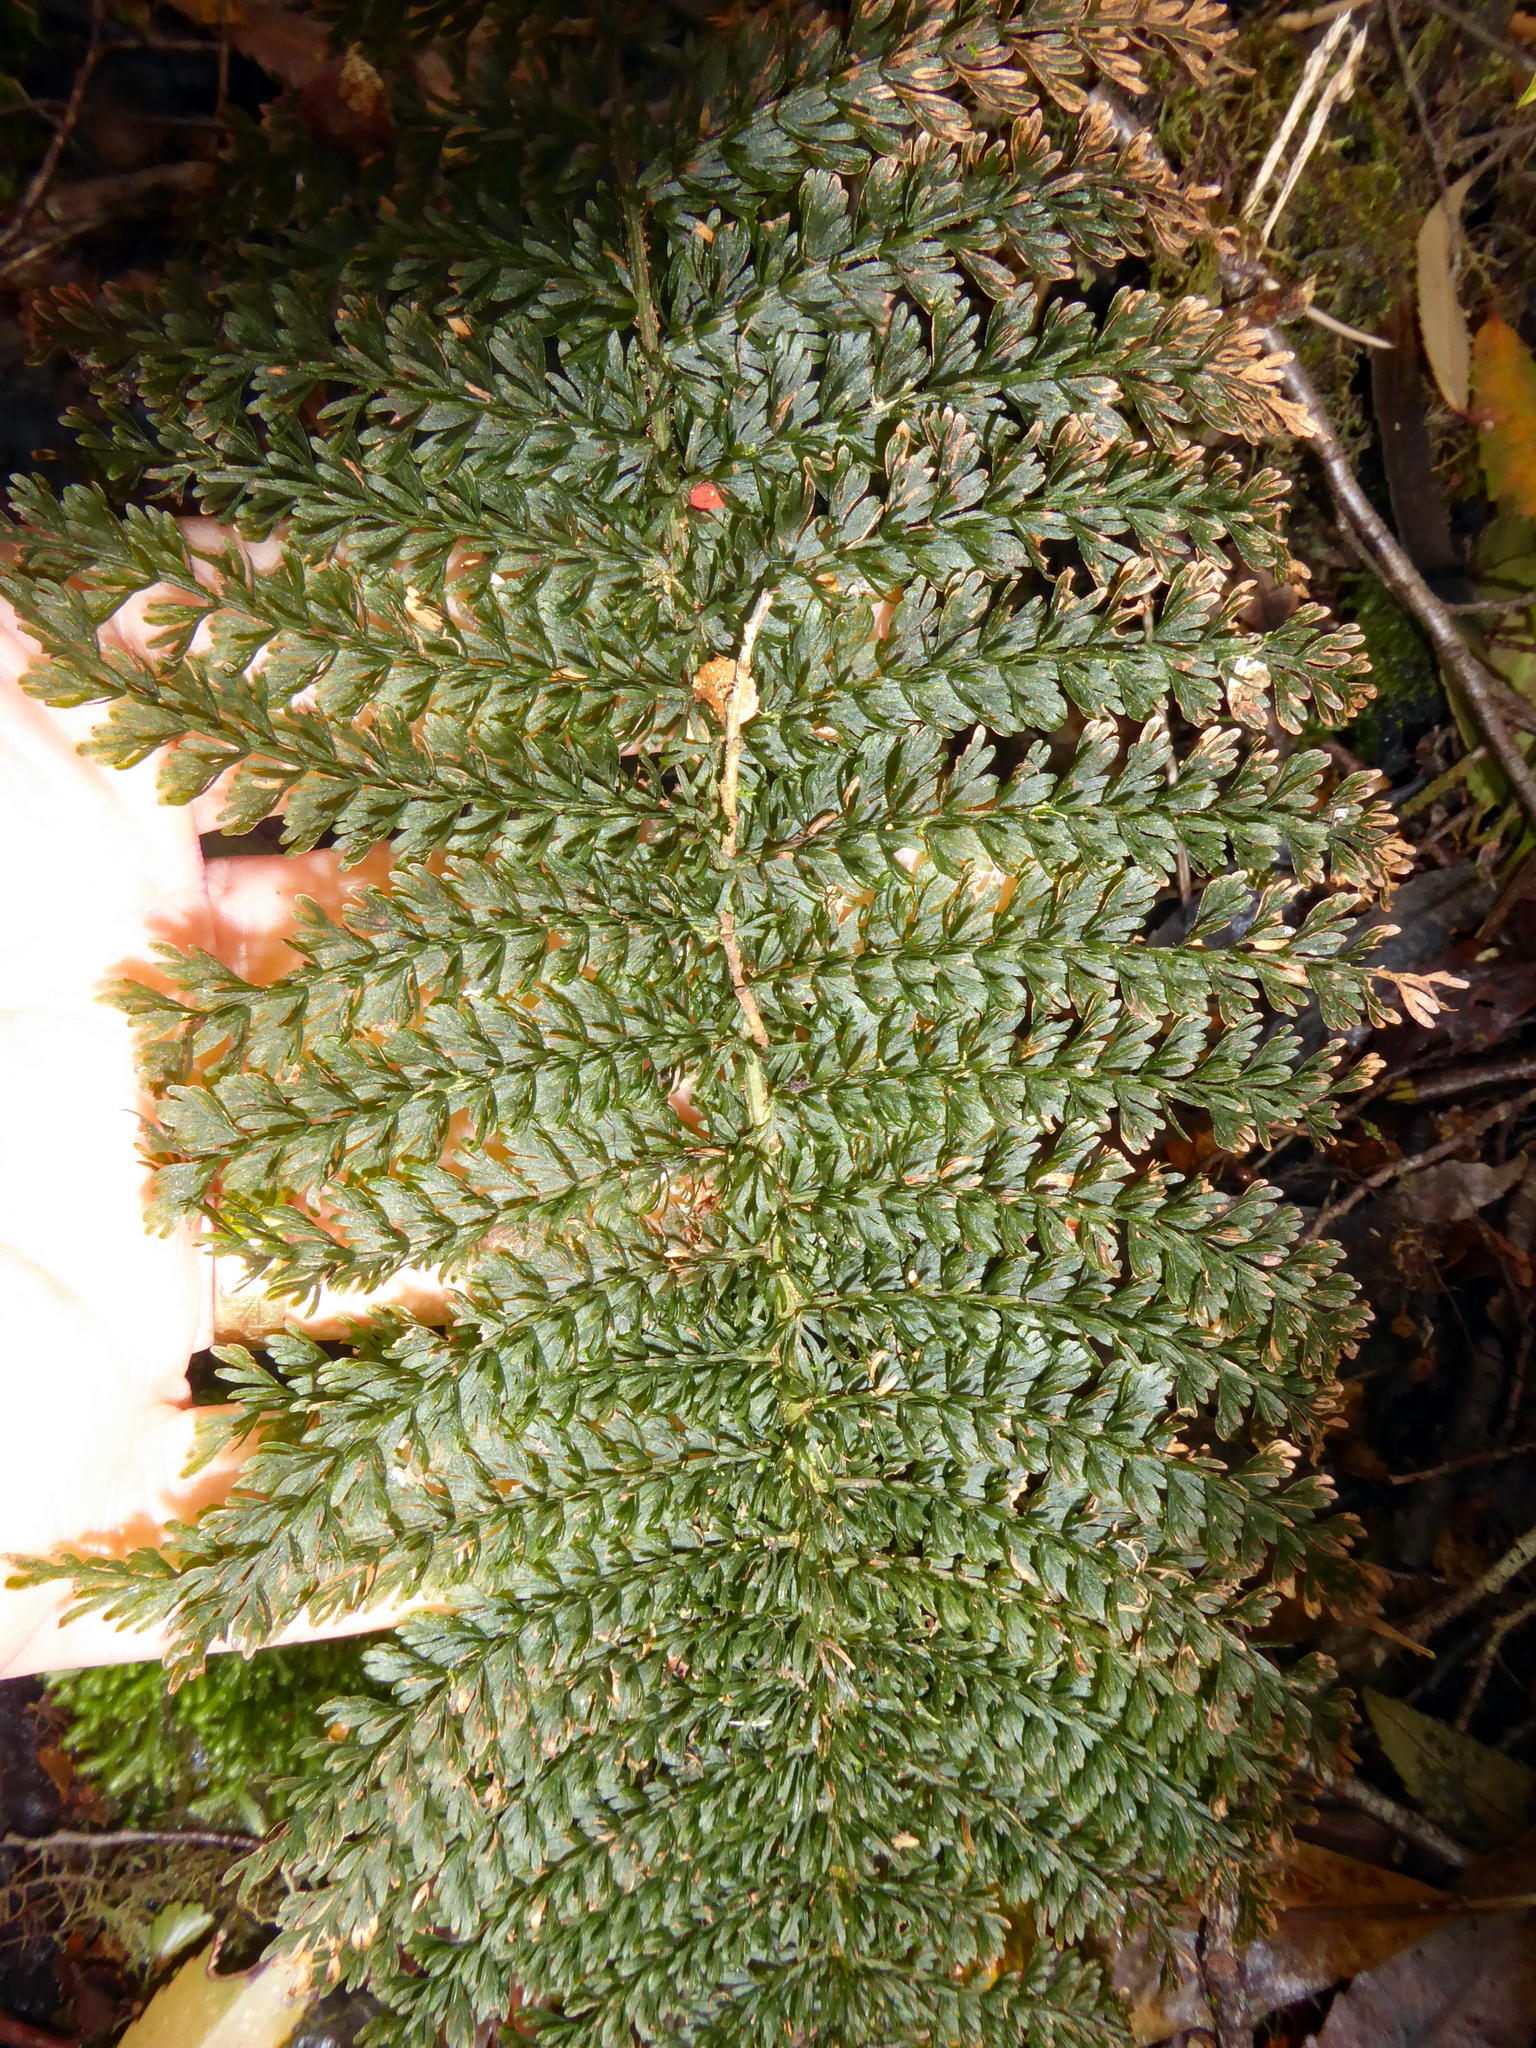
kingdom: Plantae
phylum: Tracheophyta
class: Polypodiopsida
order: Osmundales
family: Osmundaceae
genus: Leptopteris
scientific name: Leptopteris superba
